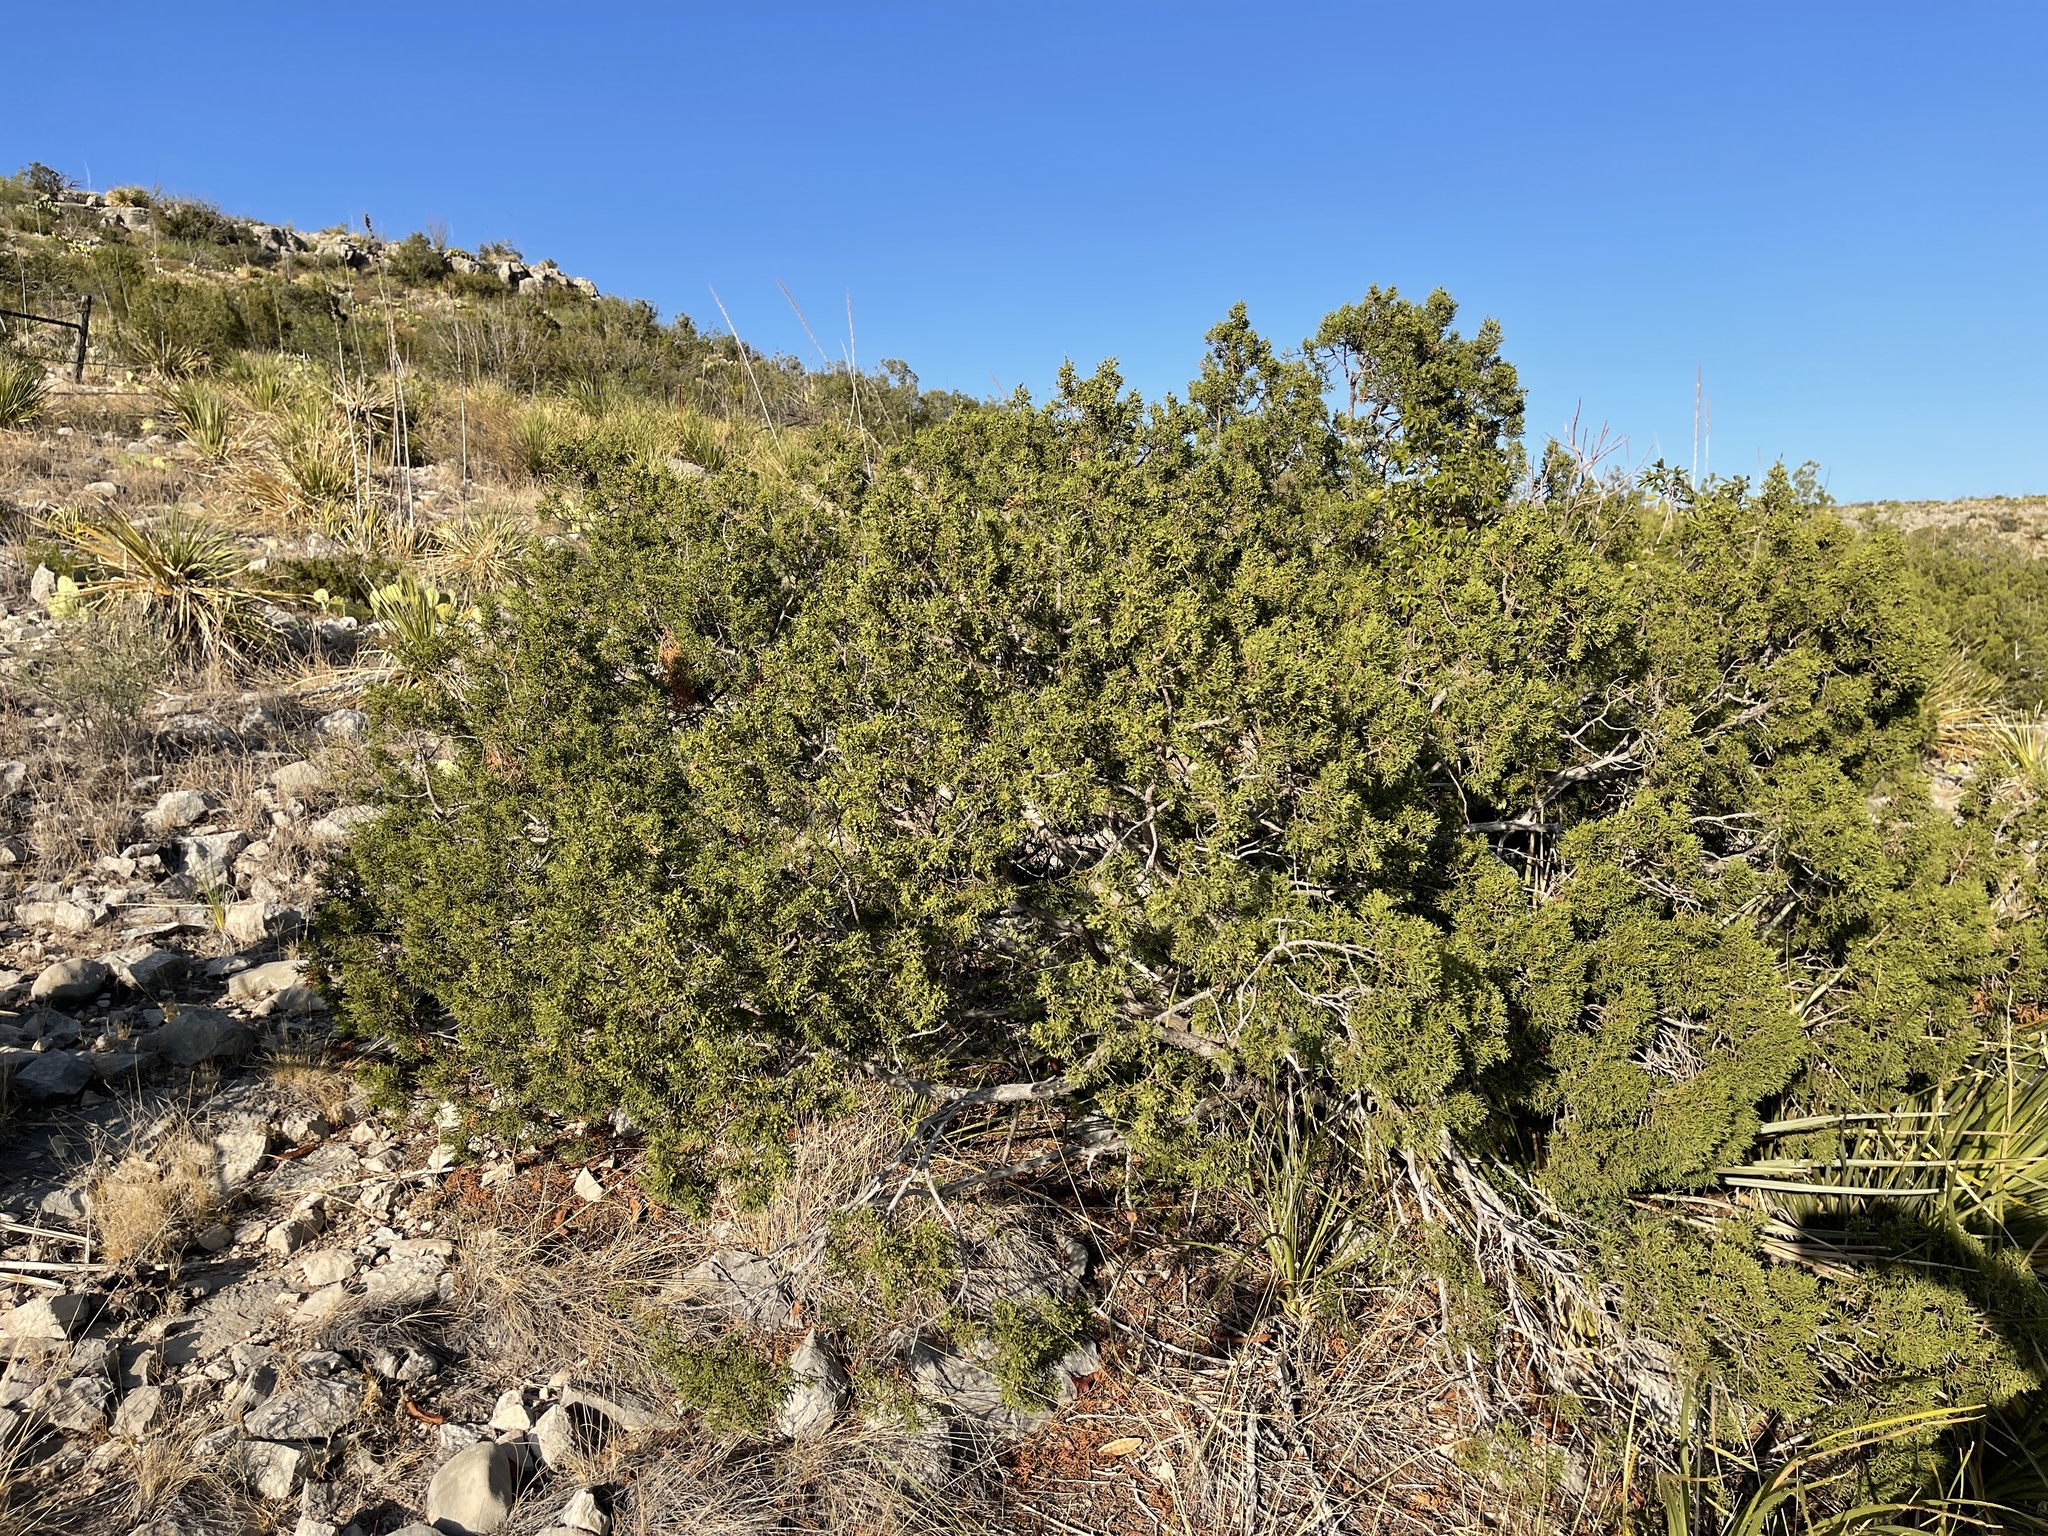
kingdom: Plantae
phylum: Tracheophyta
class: Pinopsida
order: Pinales
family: Cupressaceae
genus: Juniperus
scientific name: Juniperus pinchotii
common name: Pinchot juniper
